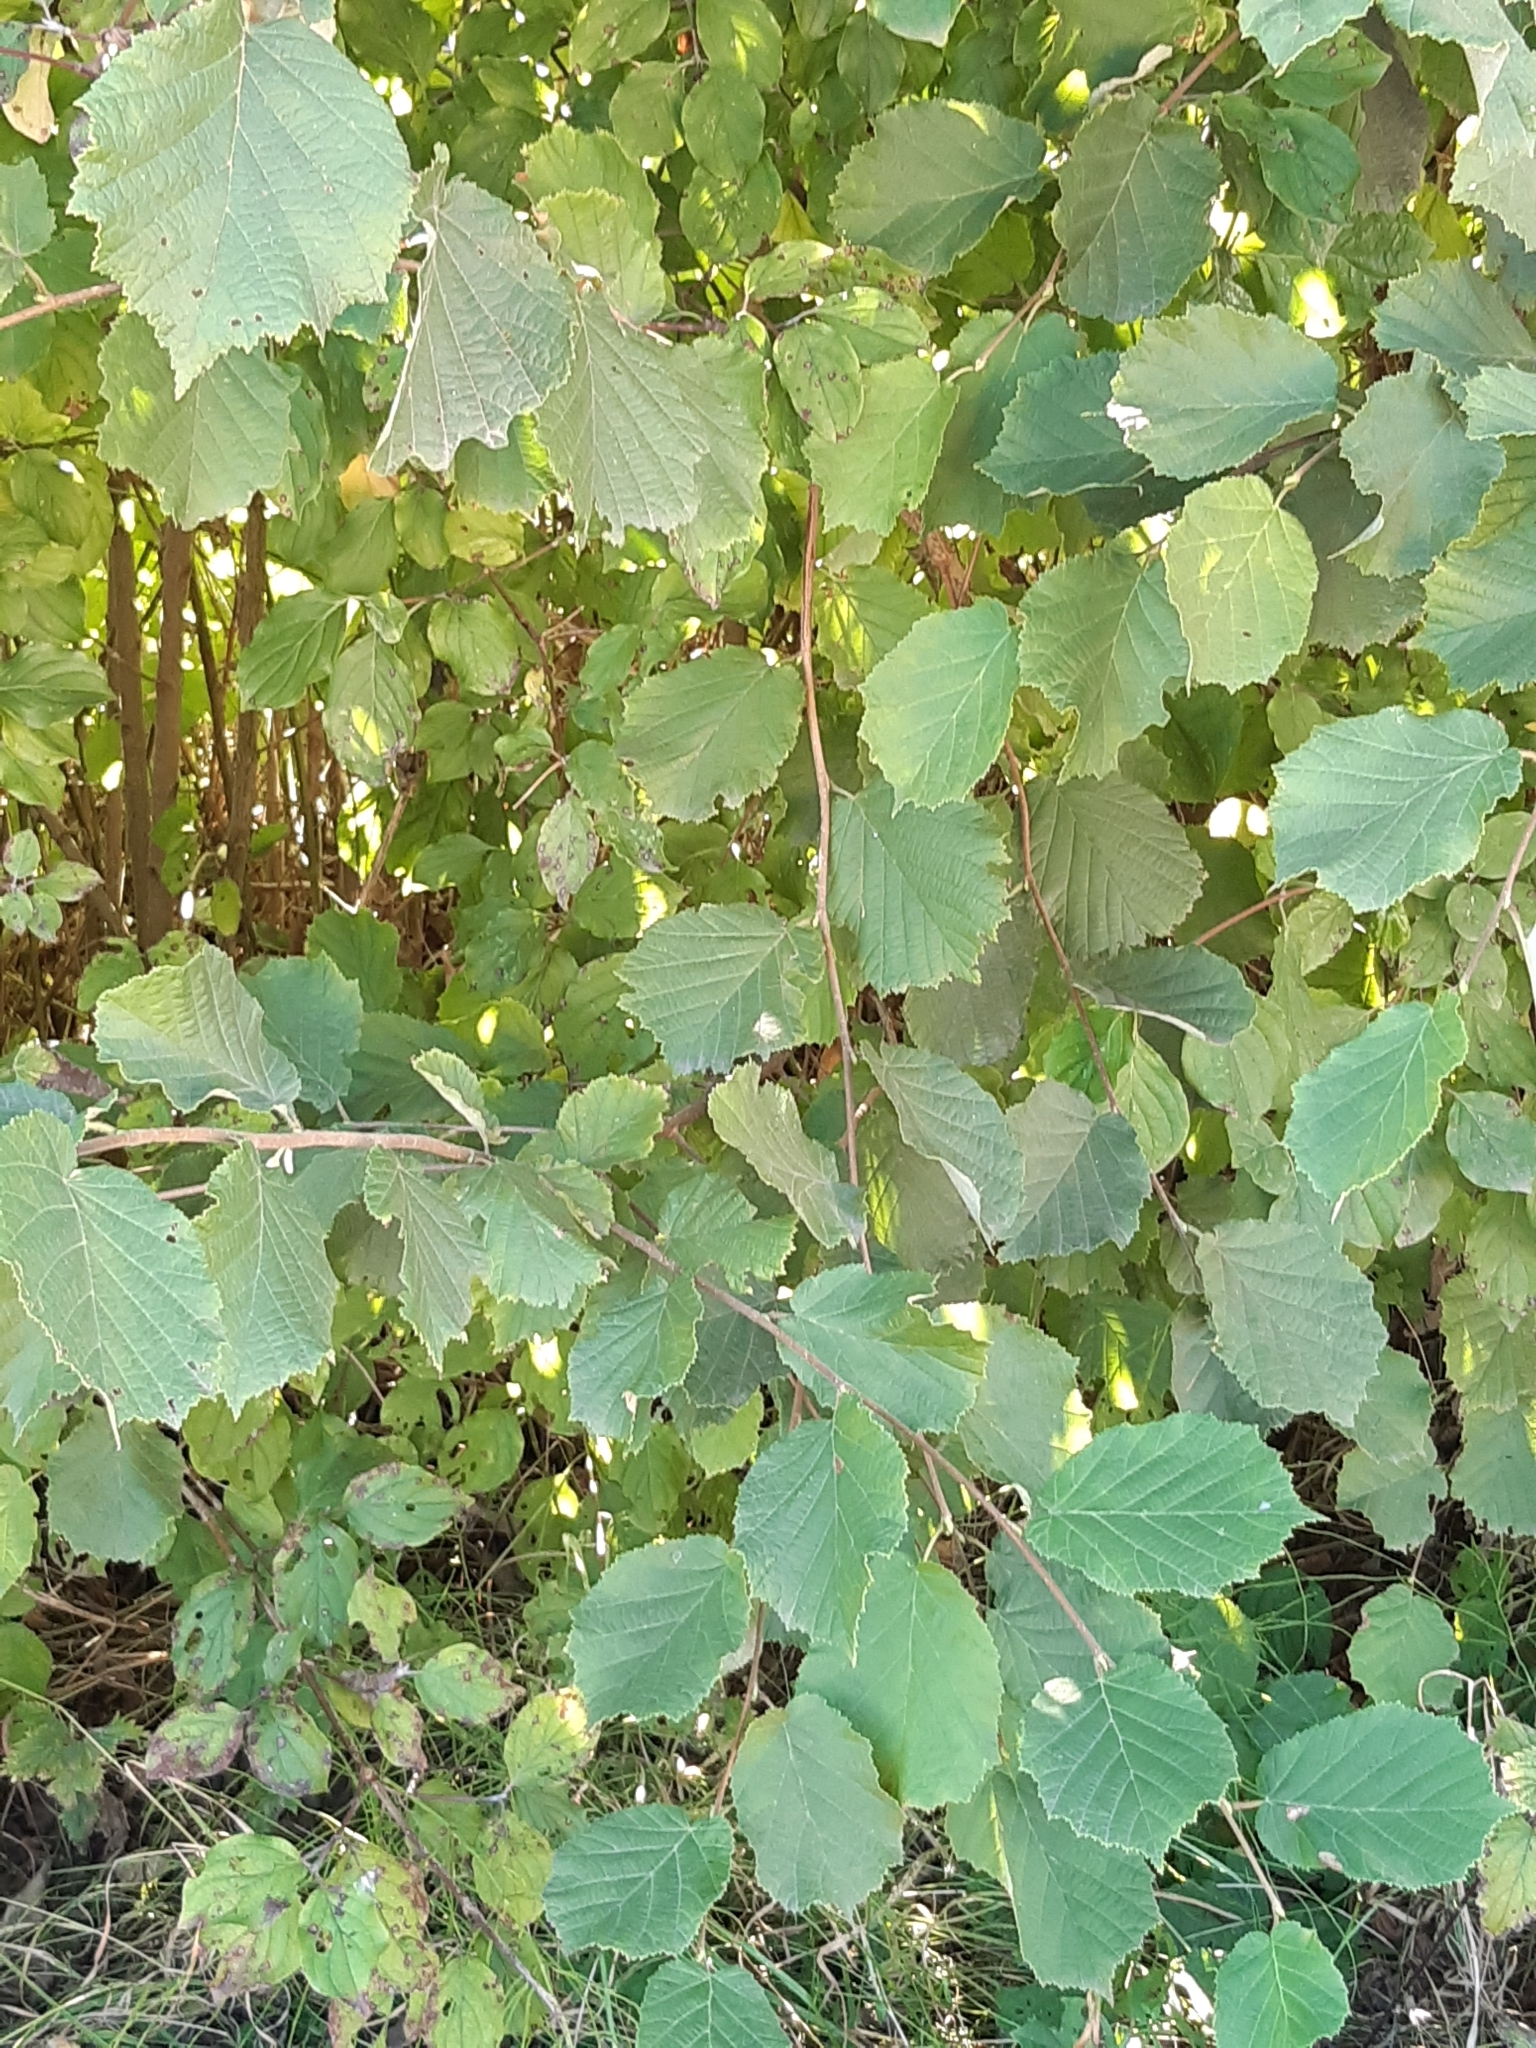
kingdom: Plantae
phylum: Tracheophyta
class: Magnoliopsida
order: Fagales
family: Betulaceae
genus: Corylus
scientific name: Corylus avellana
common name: European hazel
